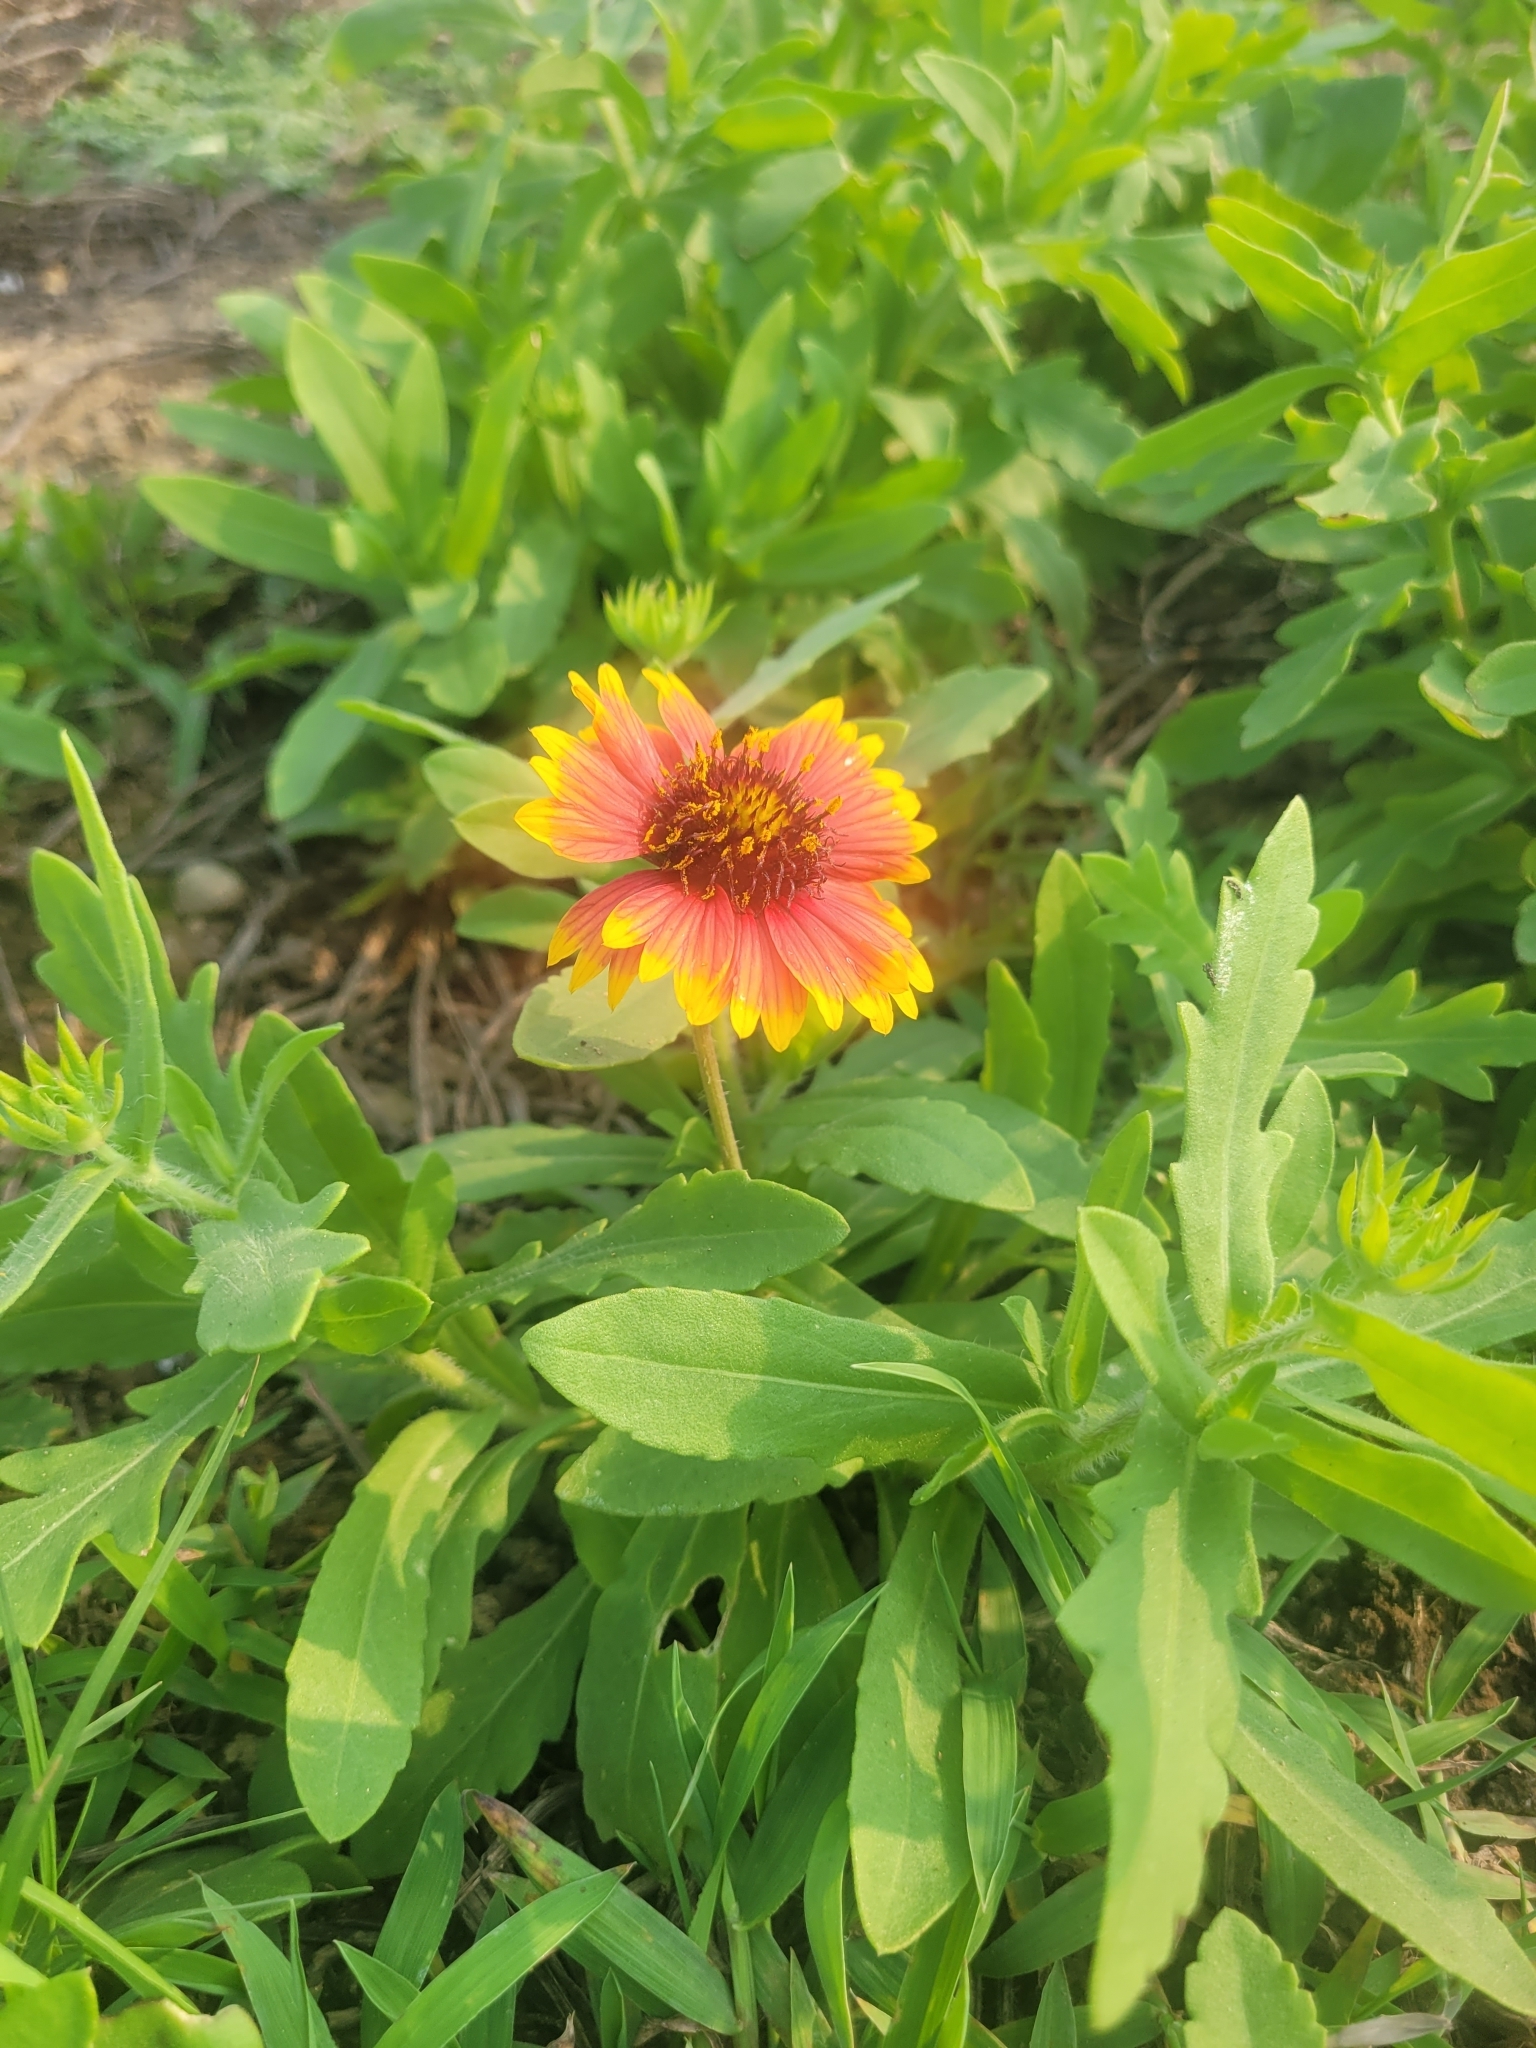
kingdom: Plantae
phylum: Tracheophyta
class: Magnoliopsida
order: Asterales
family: Asteraceae
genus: Gaillardia
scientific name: Gaillardia pulchella
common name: Firewheel
